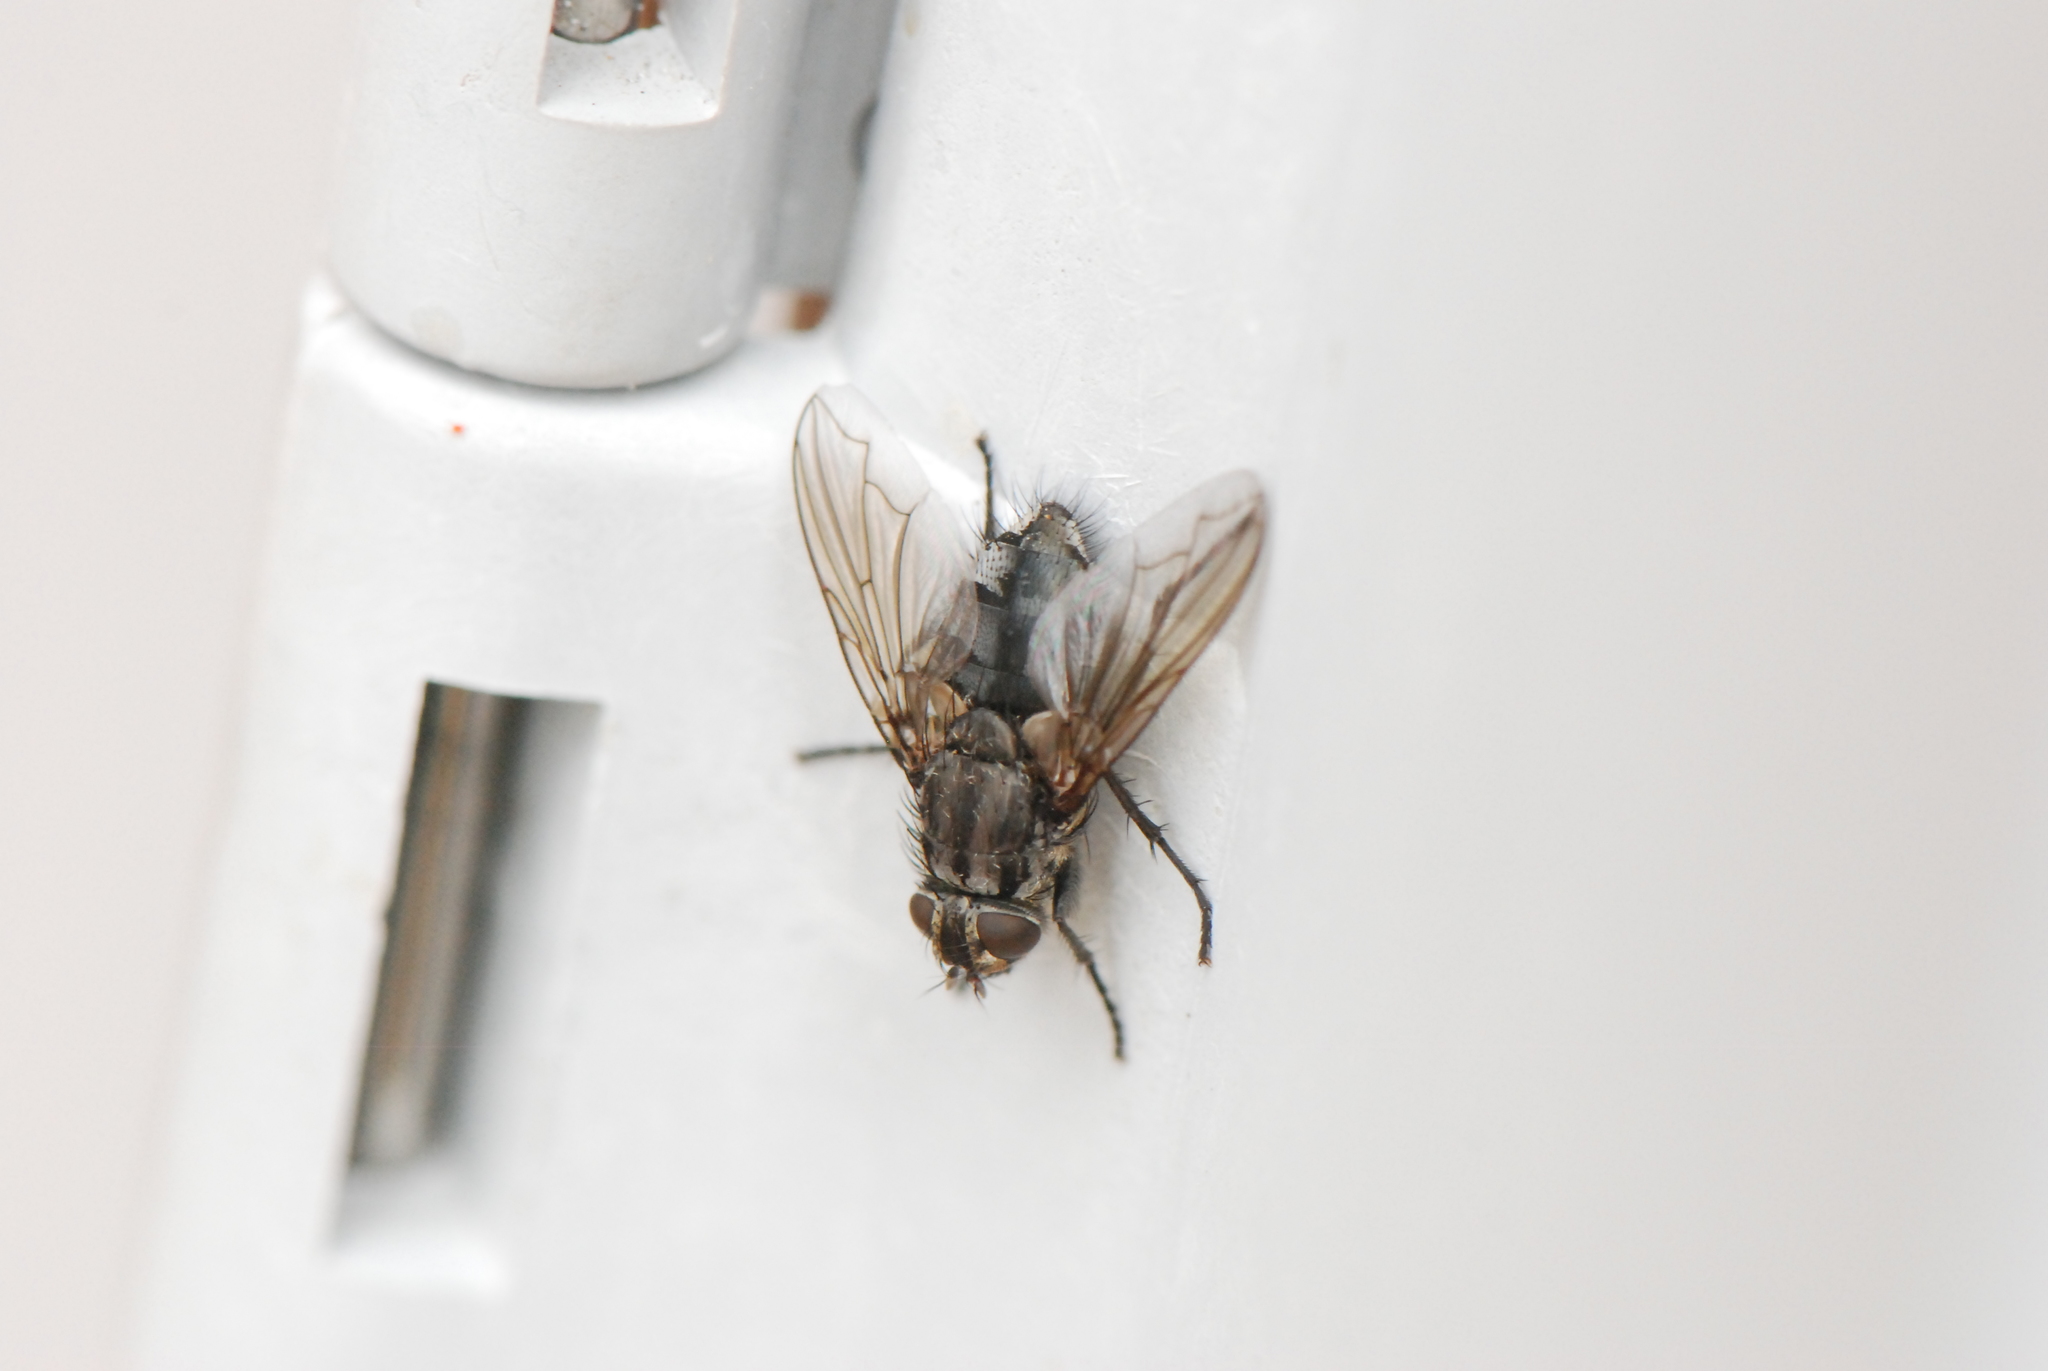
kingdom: Animalia
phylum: Arthropoda
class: Insecta
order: Diptera
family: Polleniidae
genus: Pollenia
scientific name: Pollenia vagabunda
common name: Vagabund cluster fly
